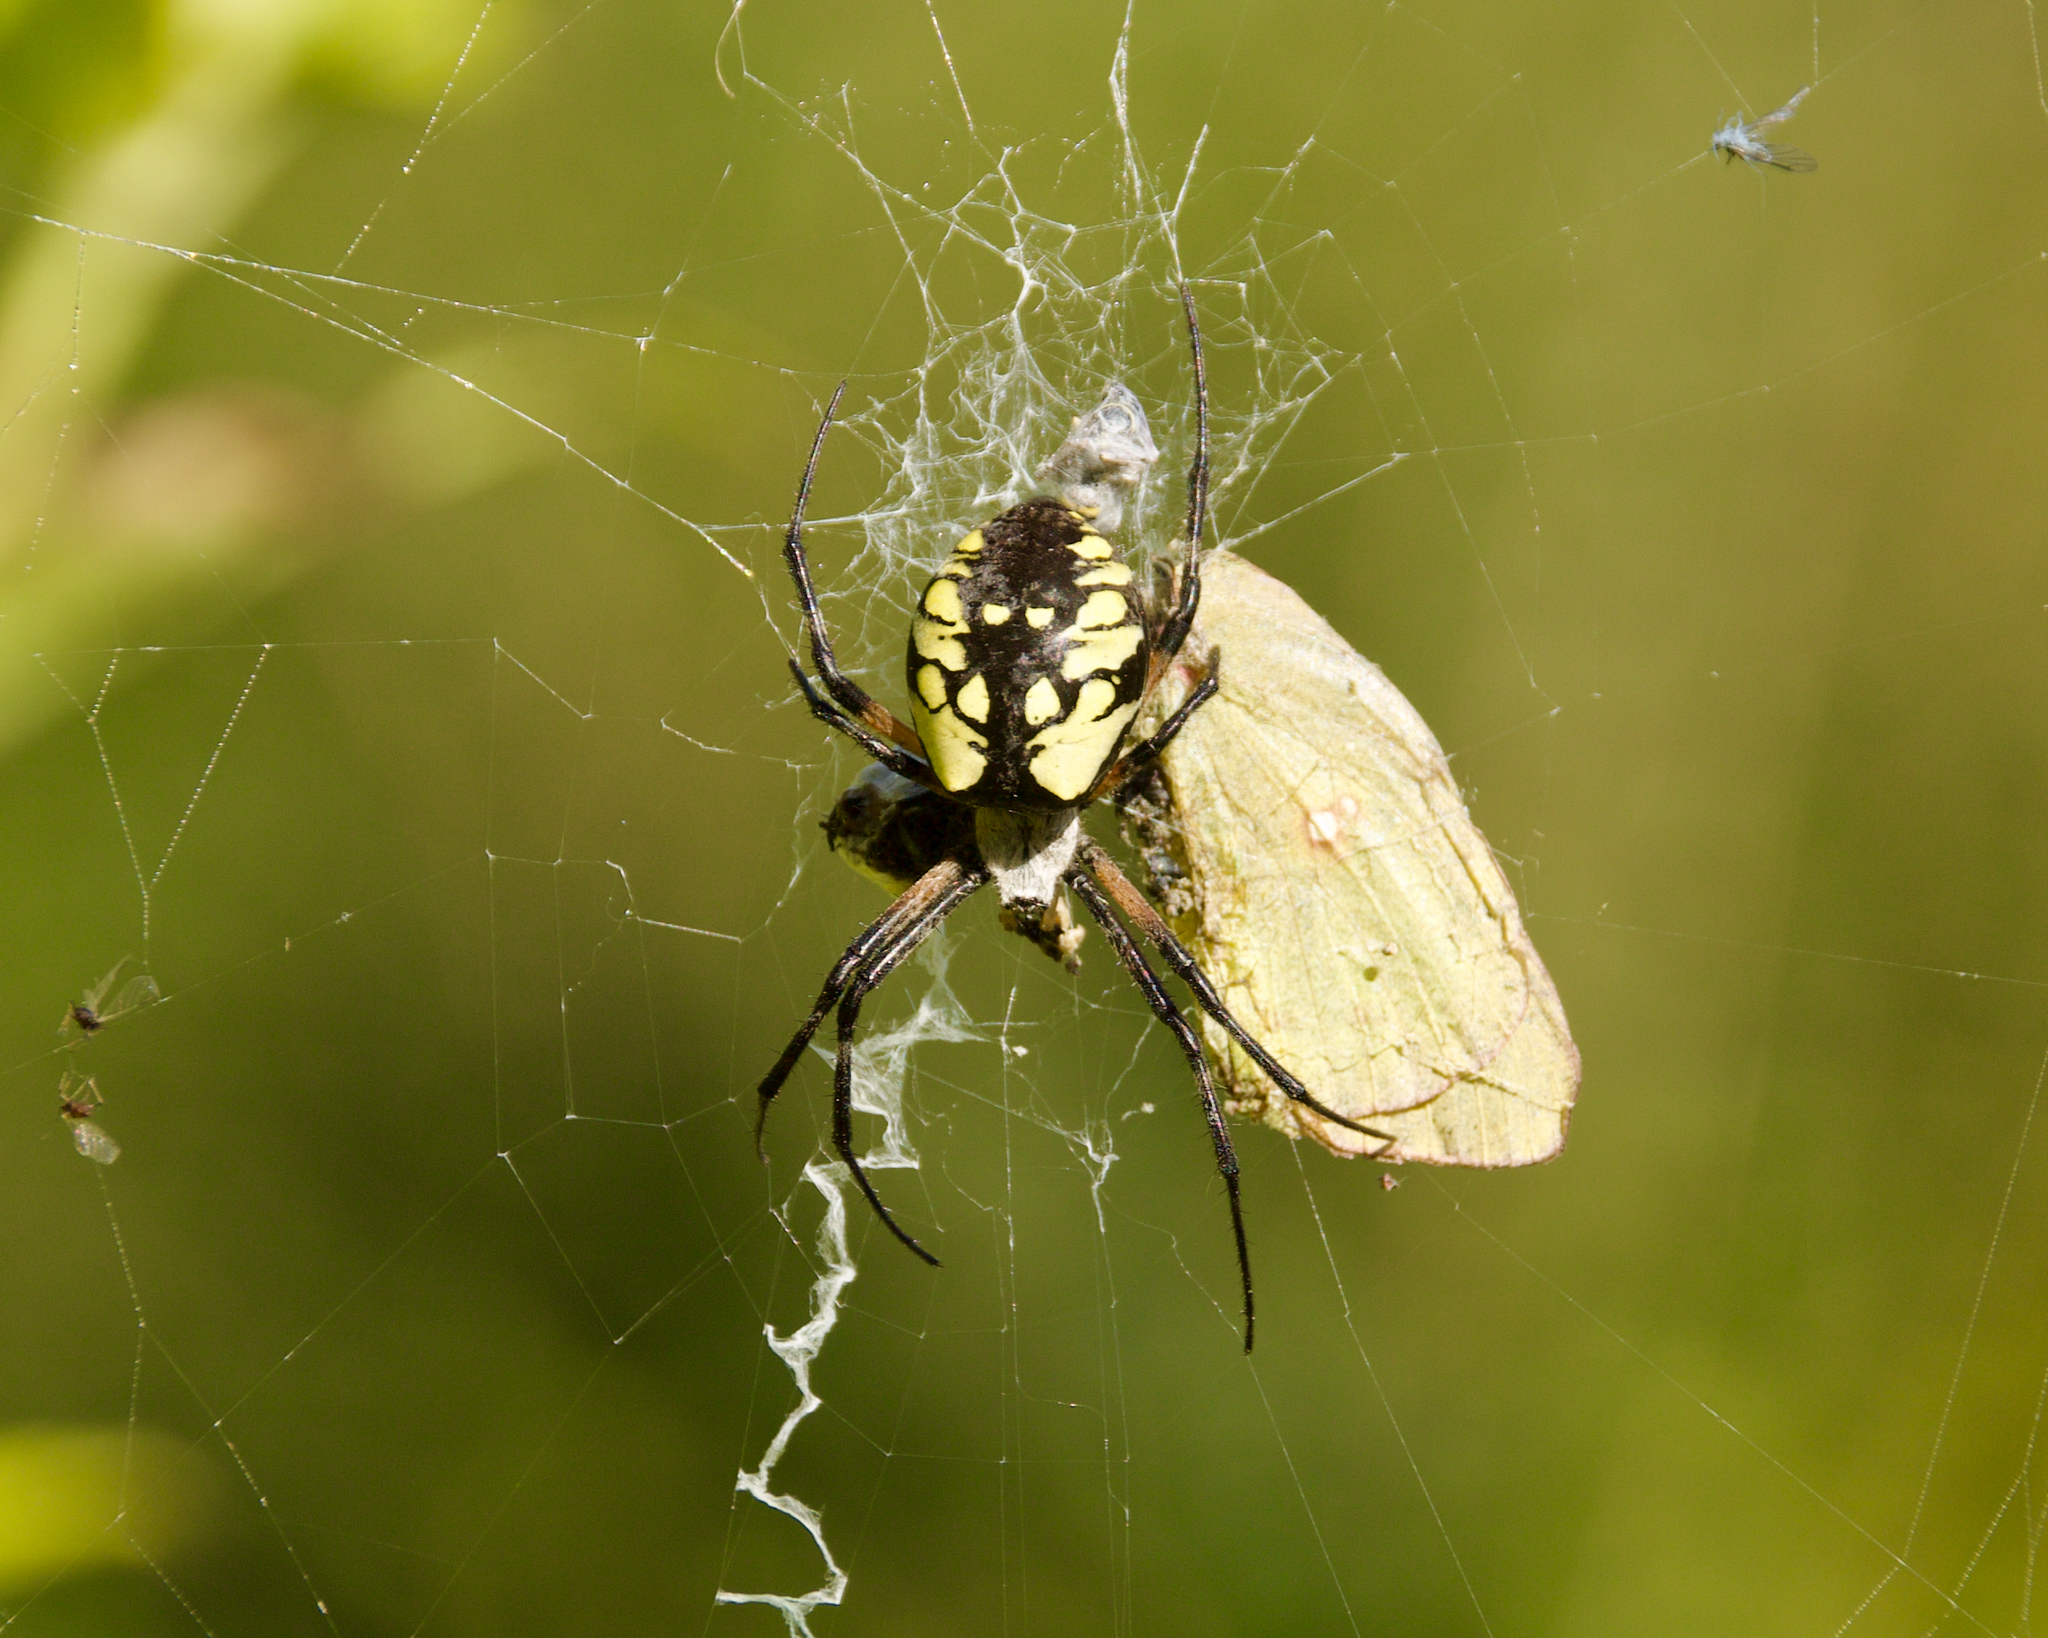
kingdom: Animalia
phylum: Arthropoda
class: Arachnida
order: Araneae
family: Araneidae
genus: Argiope
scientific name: Argiope aurantia
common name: Orb weavers
